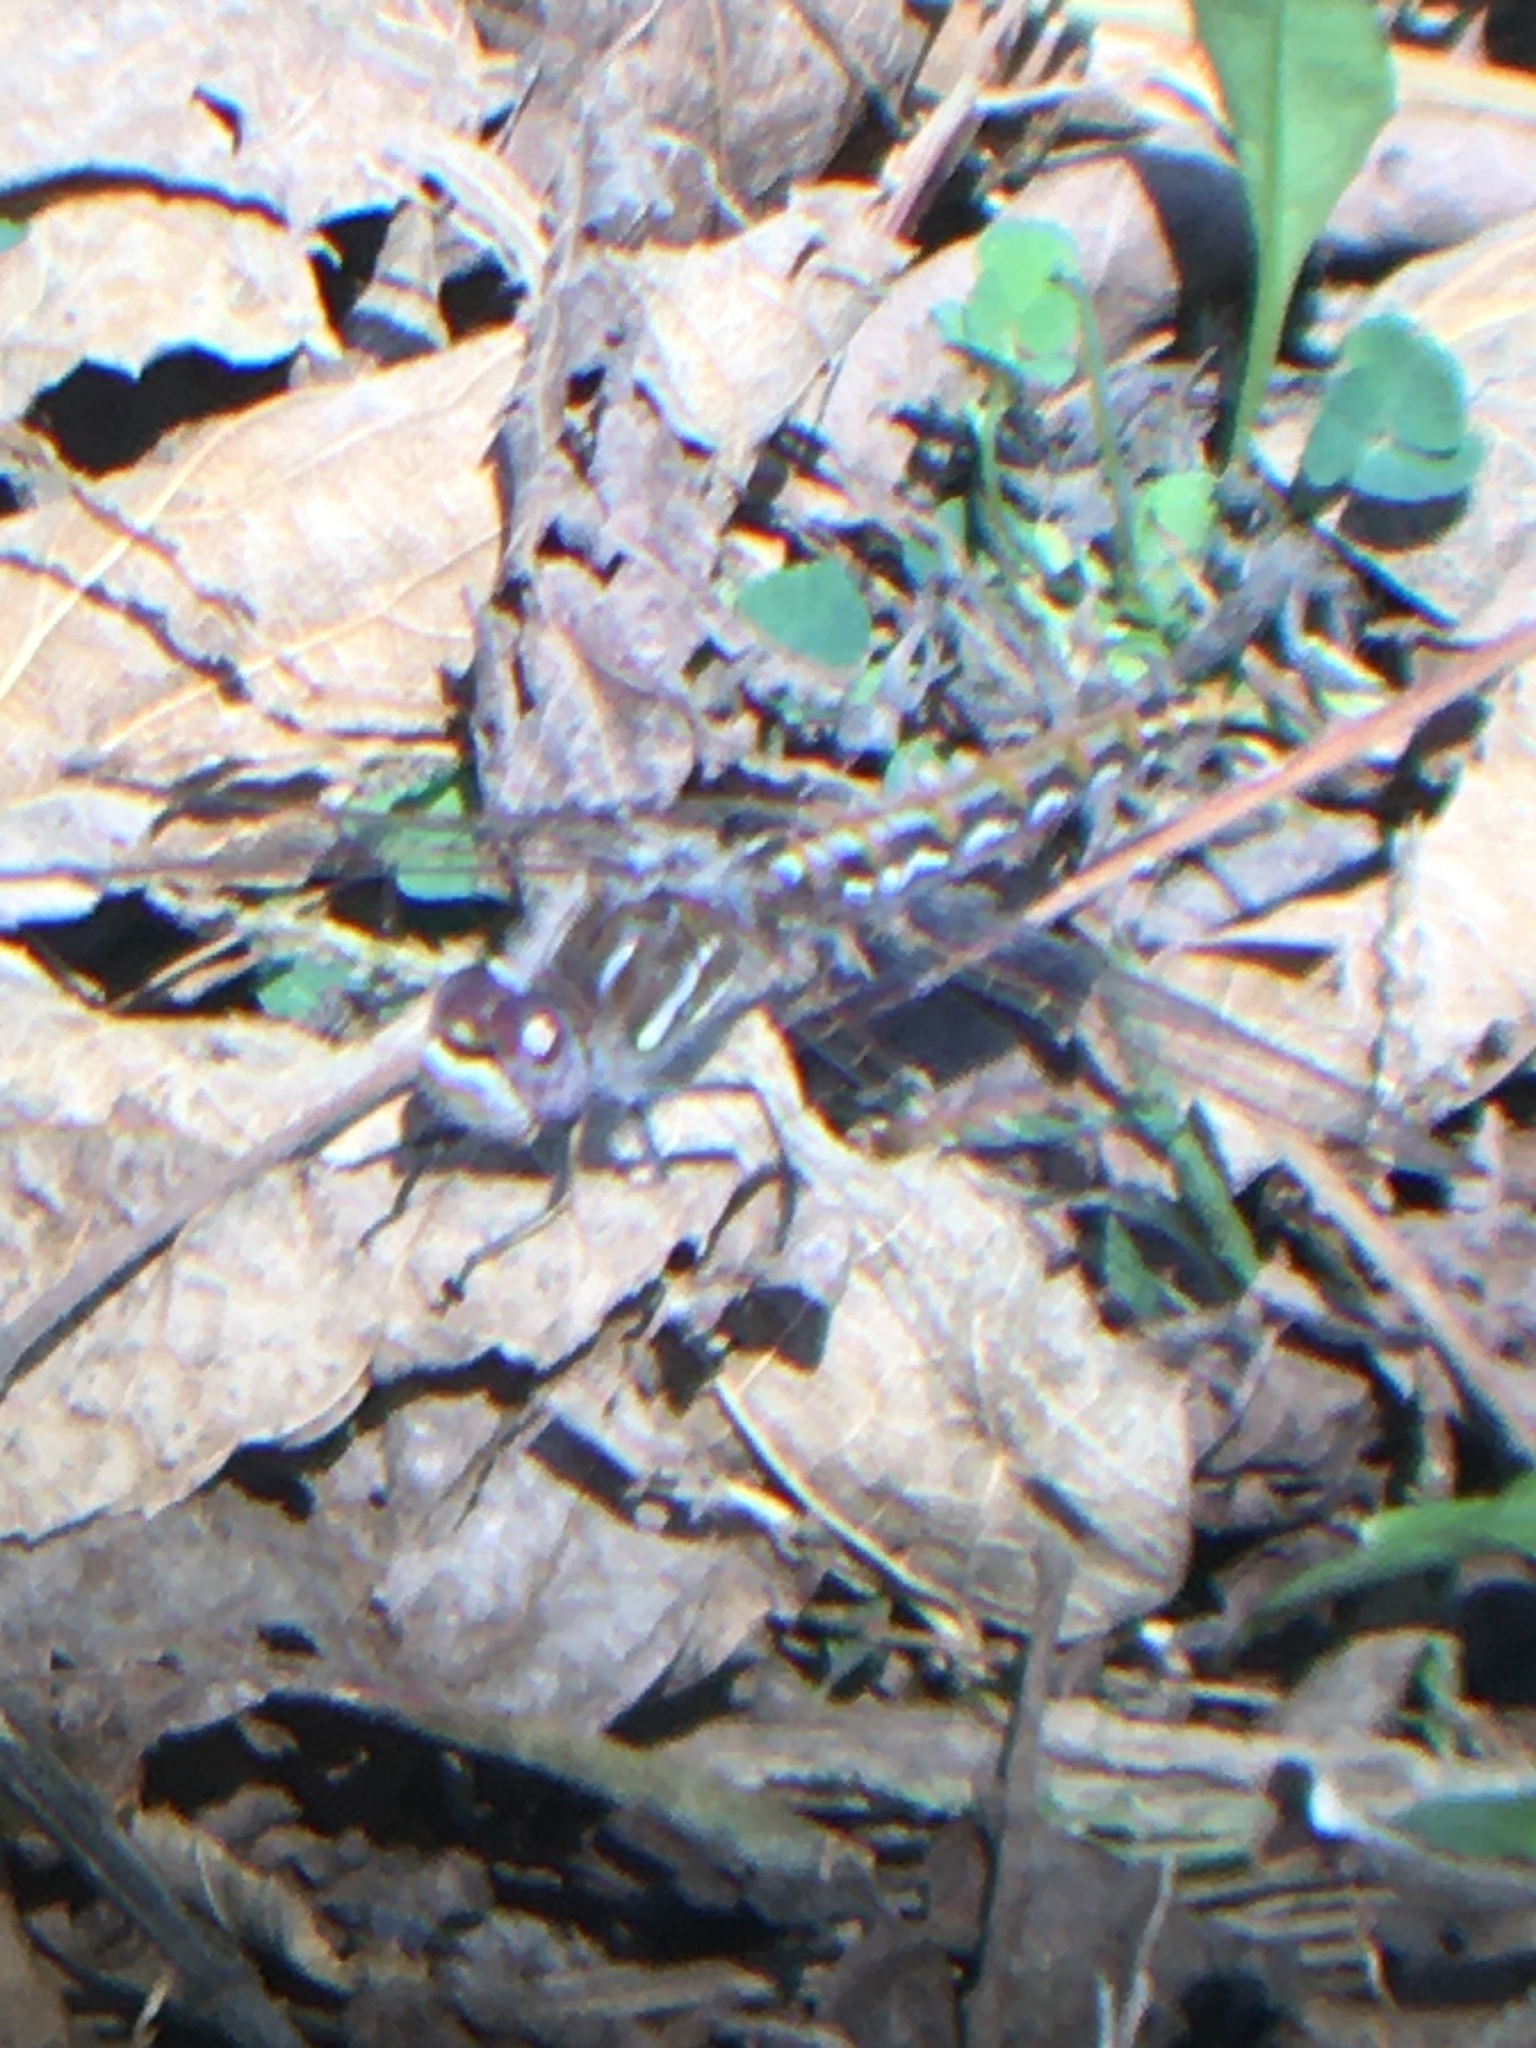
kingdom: Animalia
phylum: Arthropoda
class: Insecta
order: Odonata
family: Libellulidae
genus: Sympetrum
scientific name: Sympetrum corruptum
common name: Variegated meadowhawk
